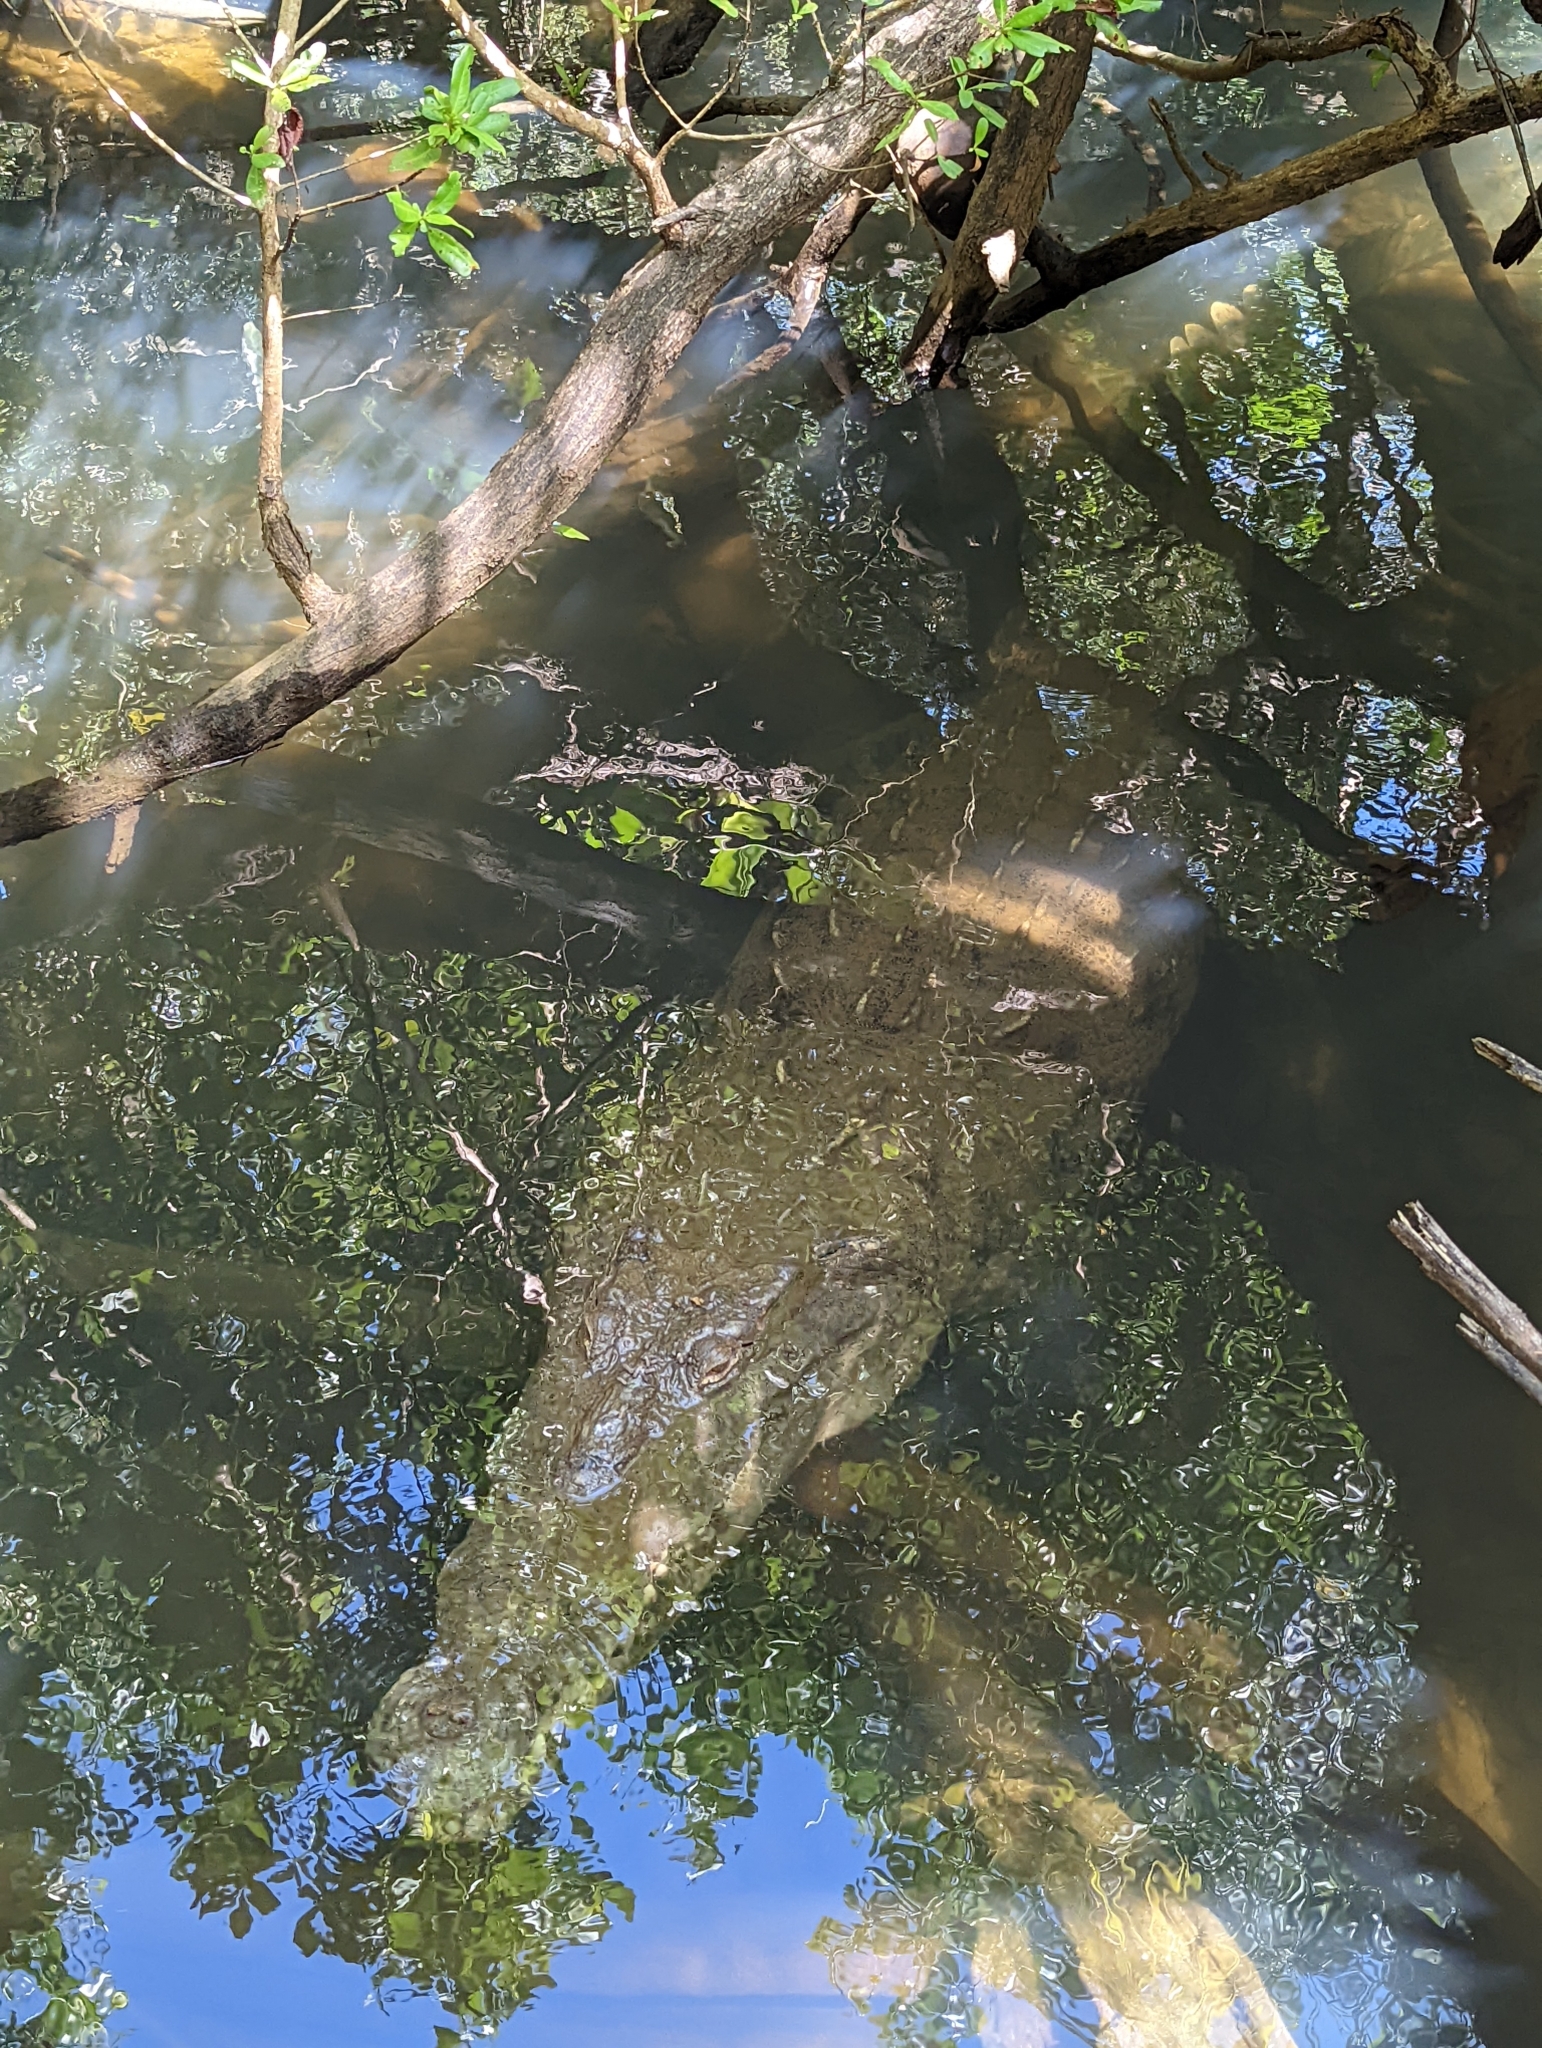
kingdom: Animalia
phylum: Chordata
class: Crocodylia
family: Crocodylidae
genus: Crocodylus
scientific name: Crocodylus acutus
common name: American crocodile
